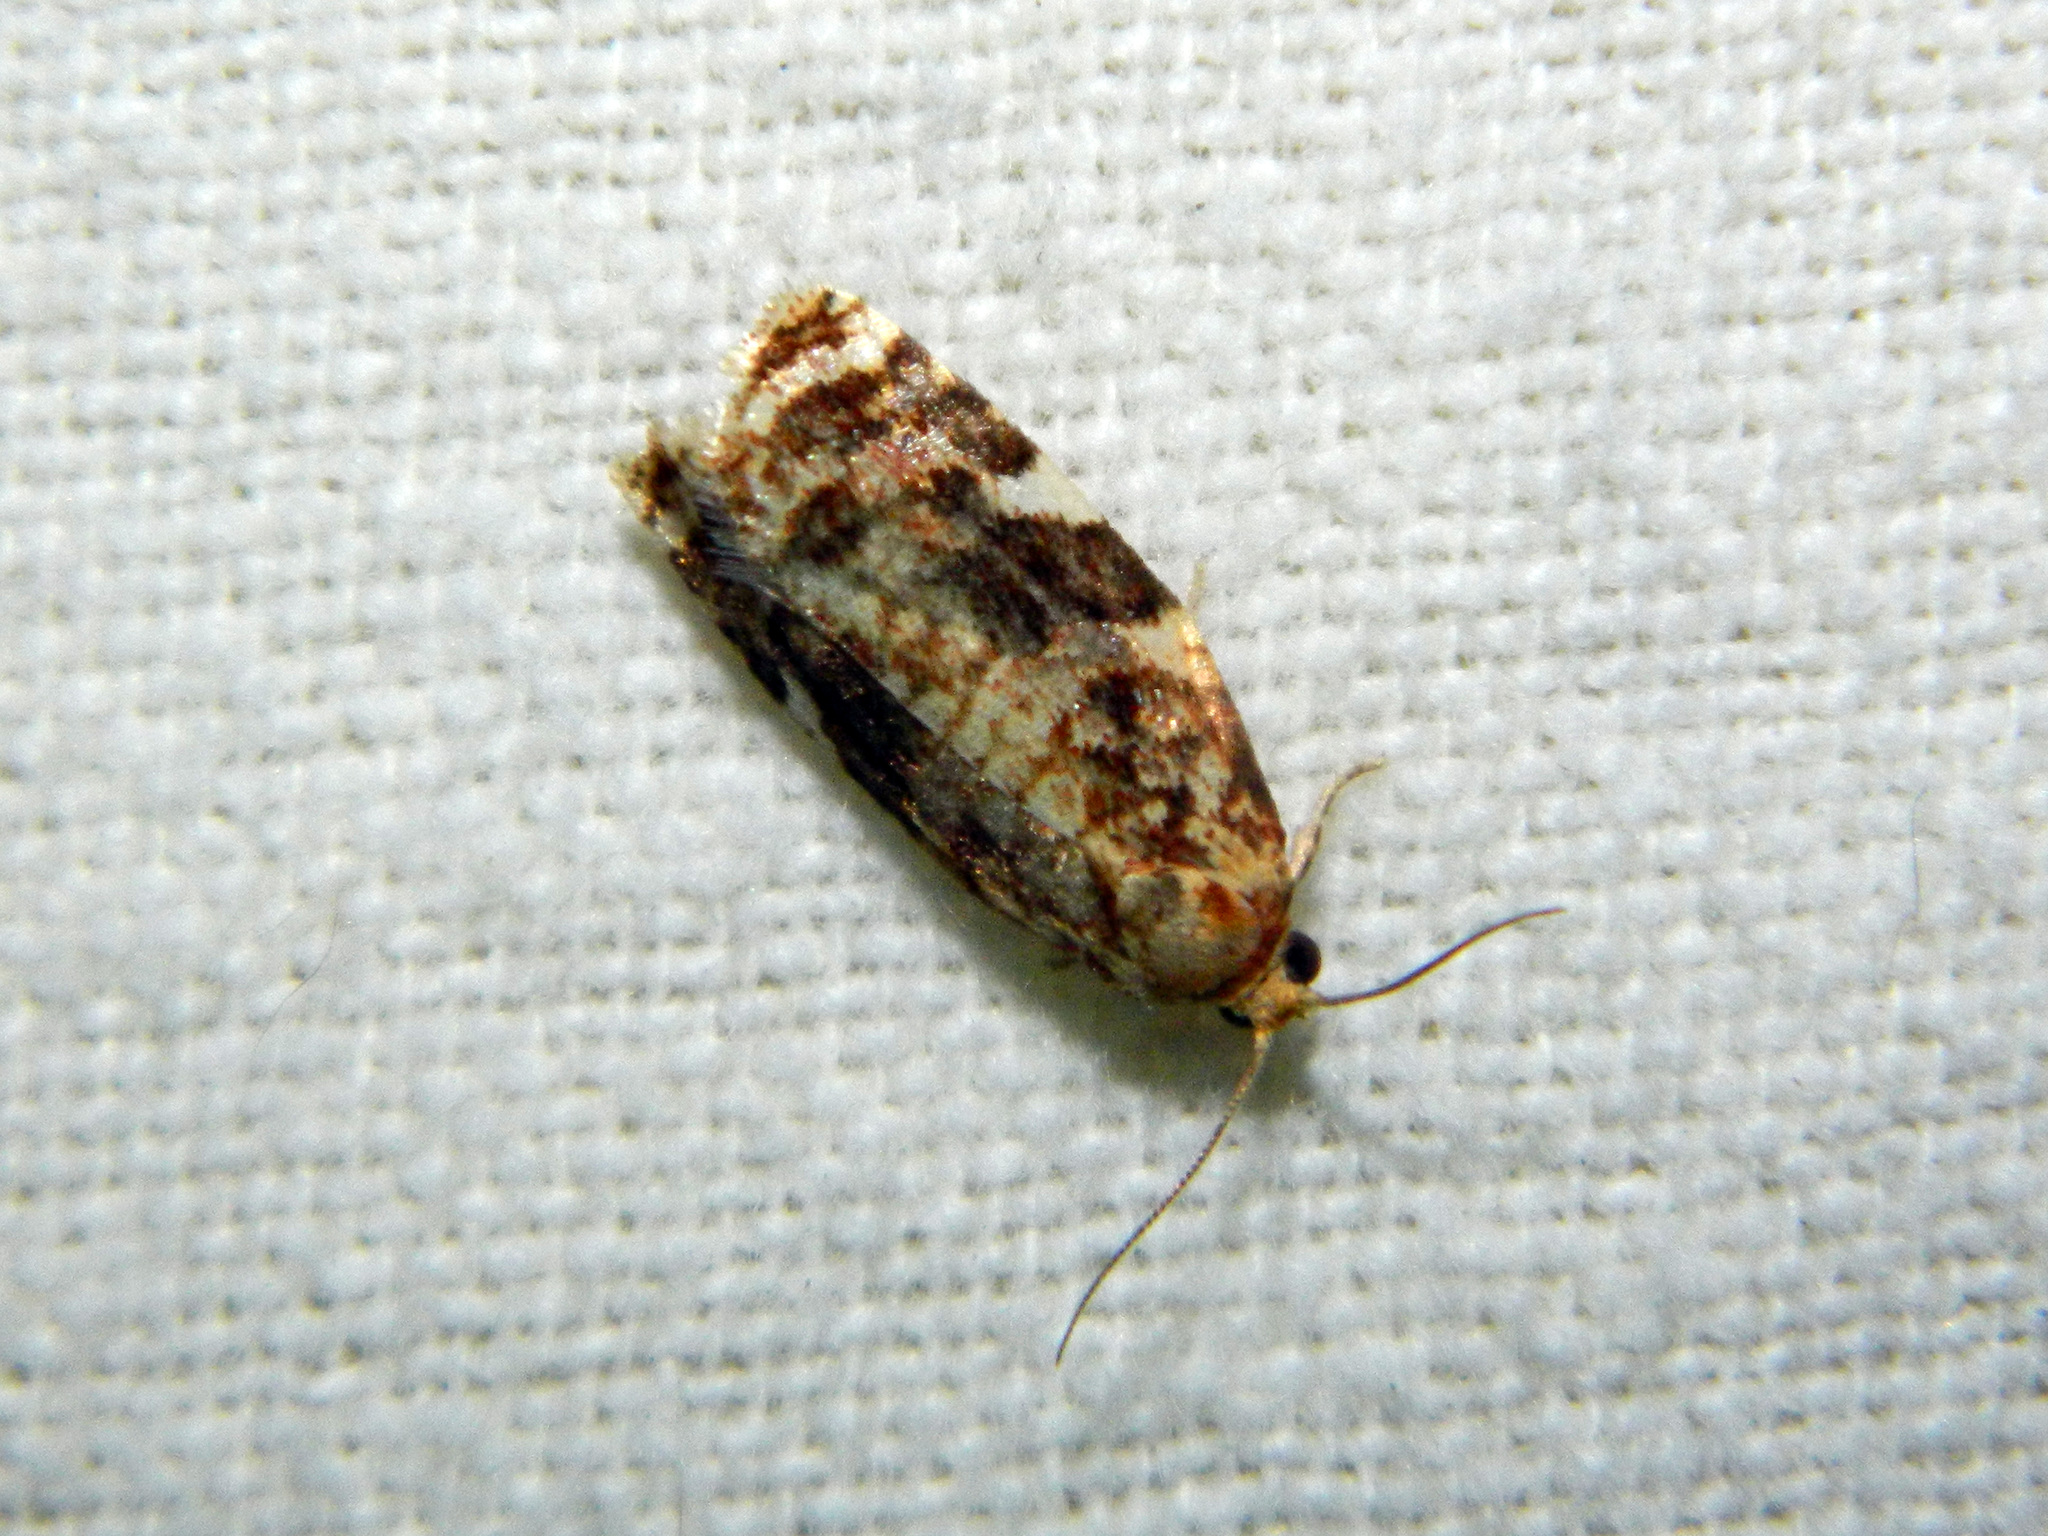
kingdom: Animalia
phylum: Arthropoda
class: Insecta
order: Lepidoptera
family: Tortricidae
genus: Archips
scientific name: Archips argyrospila
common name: Fruit-tree leafroller moth
